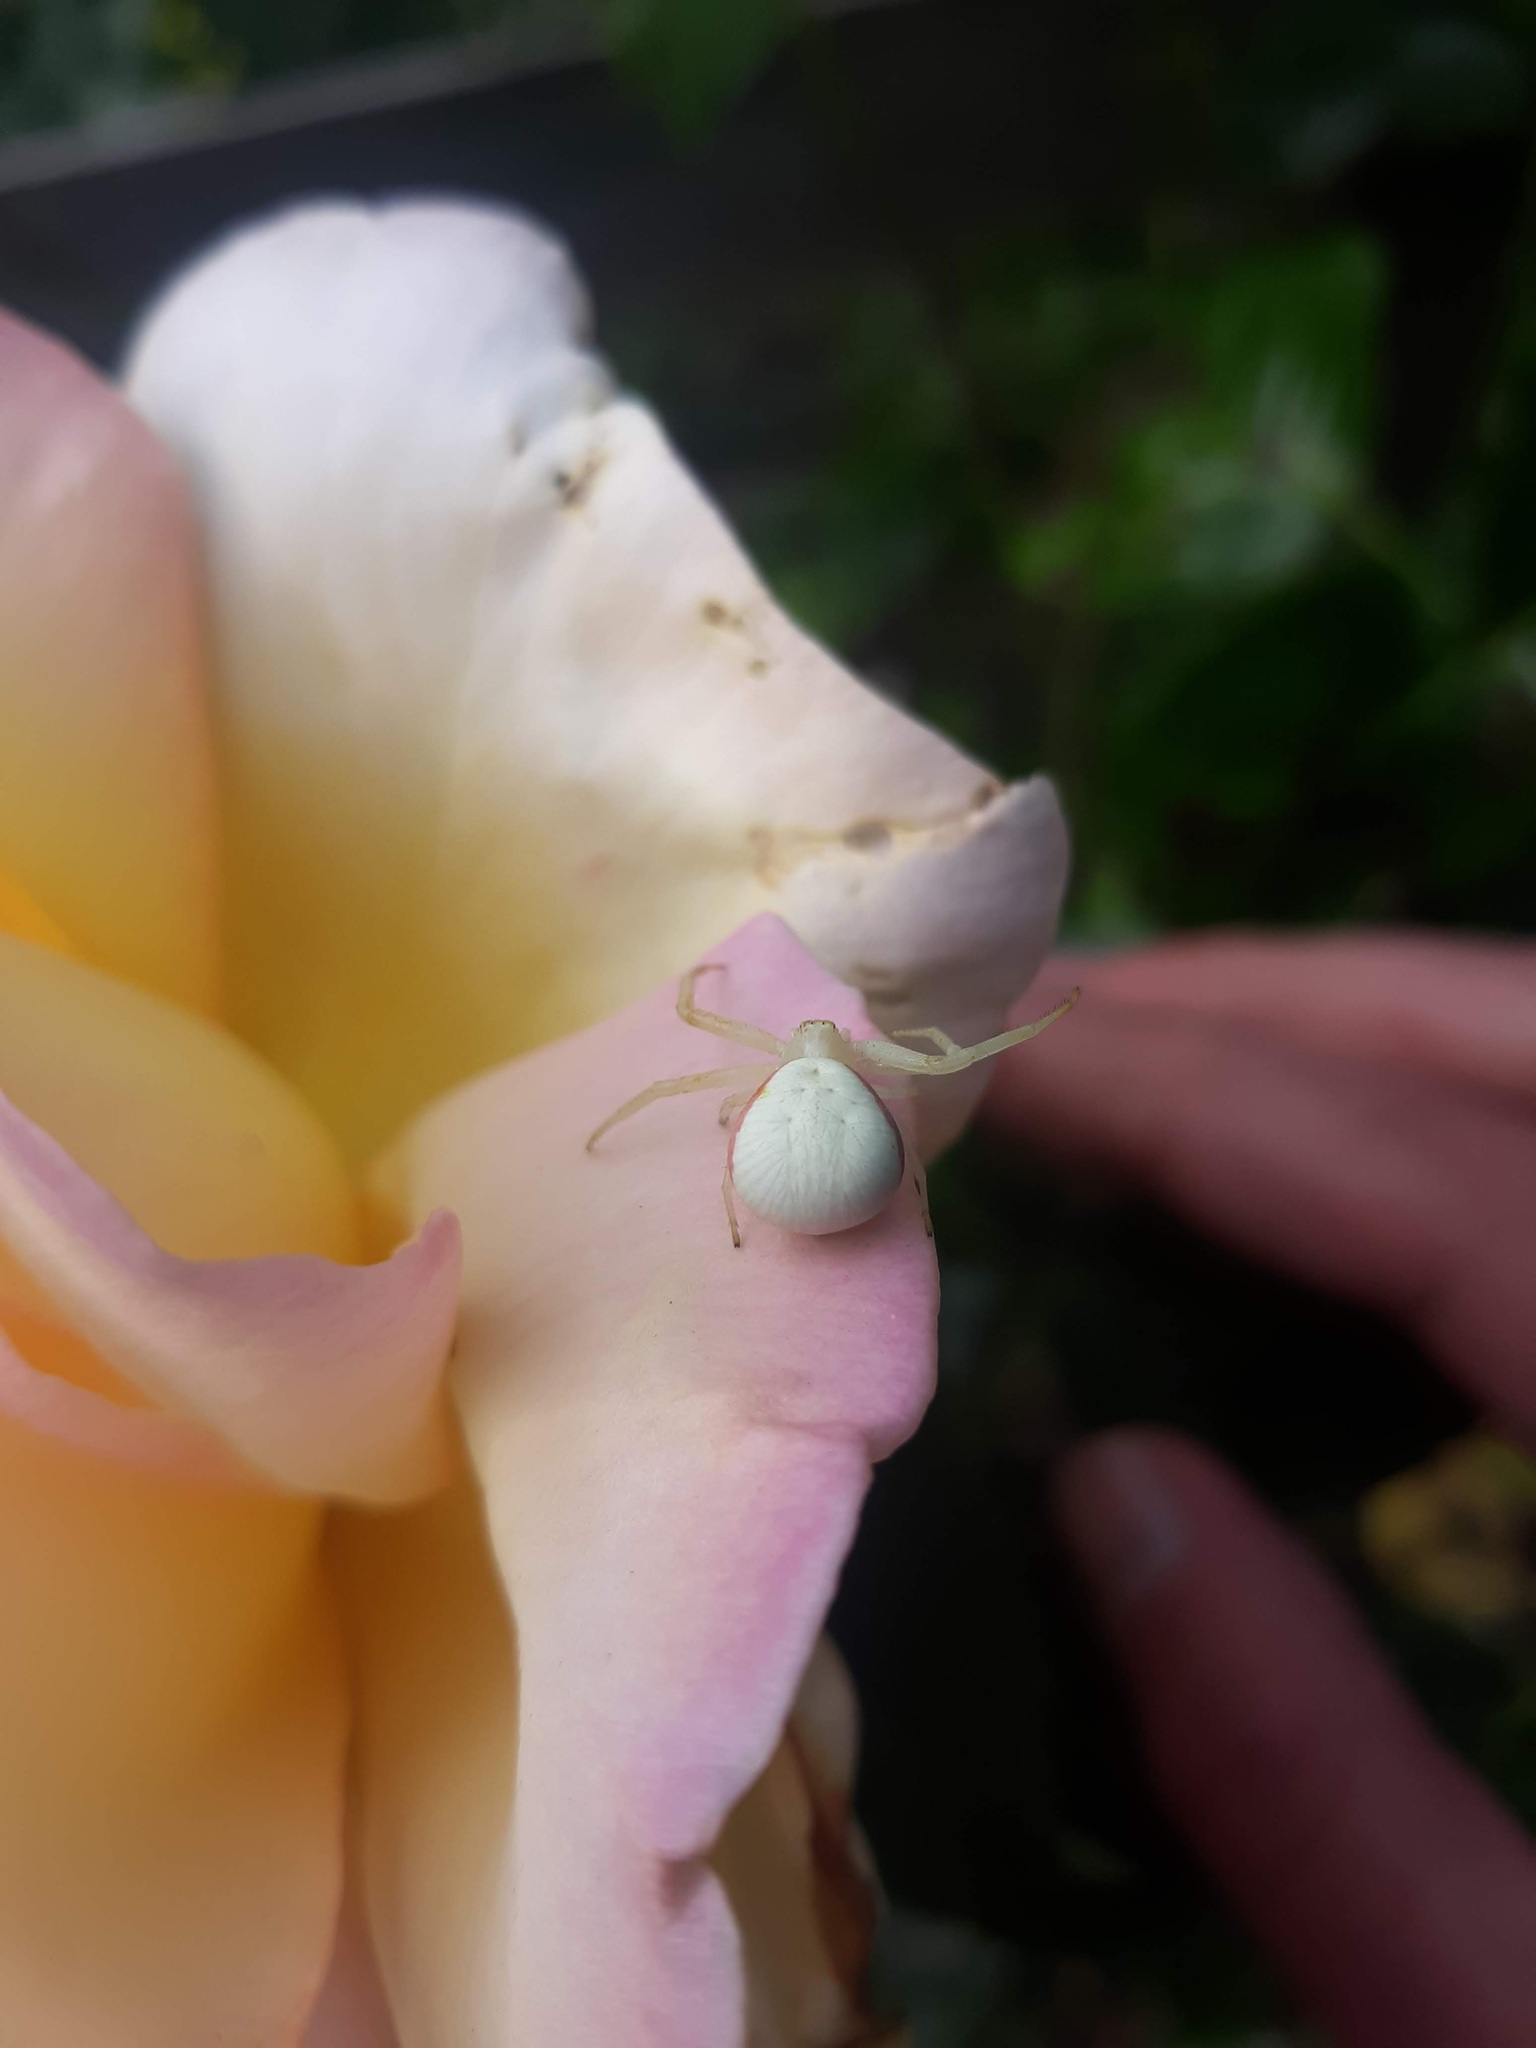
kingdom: Animalia
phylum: Arthropoda
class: Arachnida
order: Araneae
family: Thomisidae
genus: Misumena
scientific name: Misumena vatia
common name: Goldenrod crab spider
